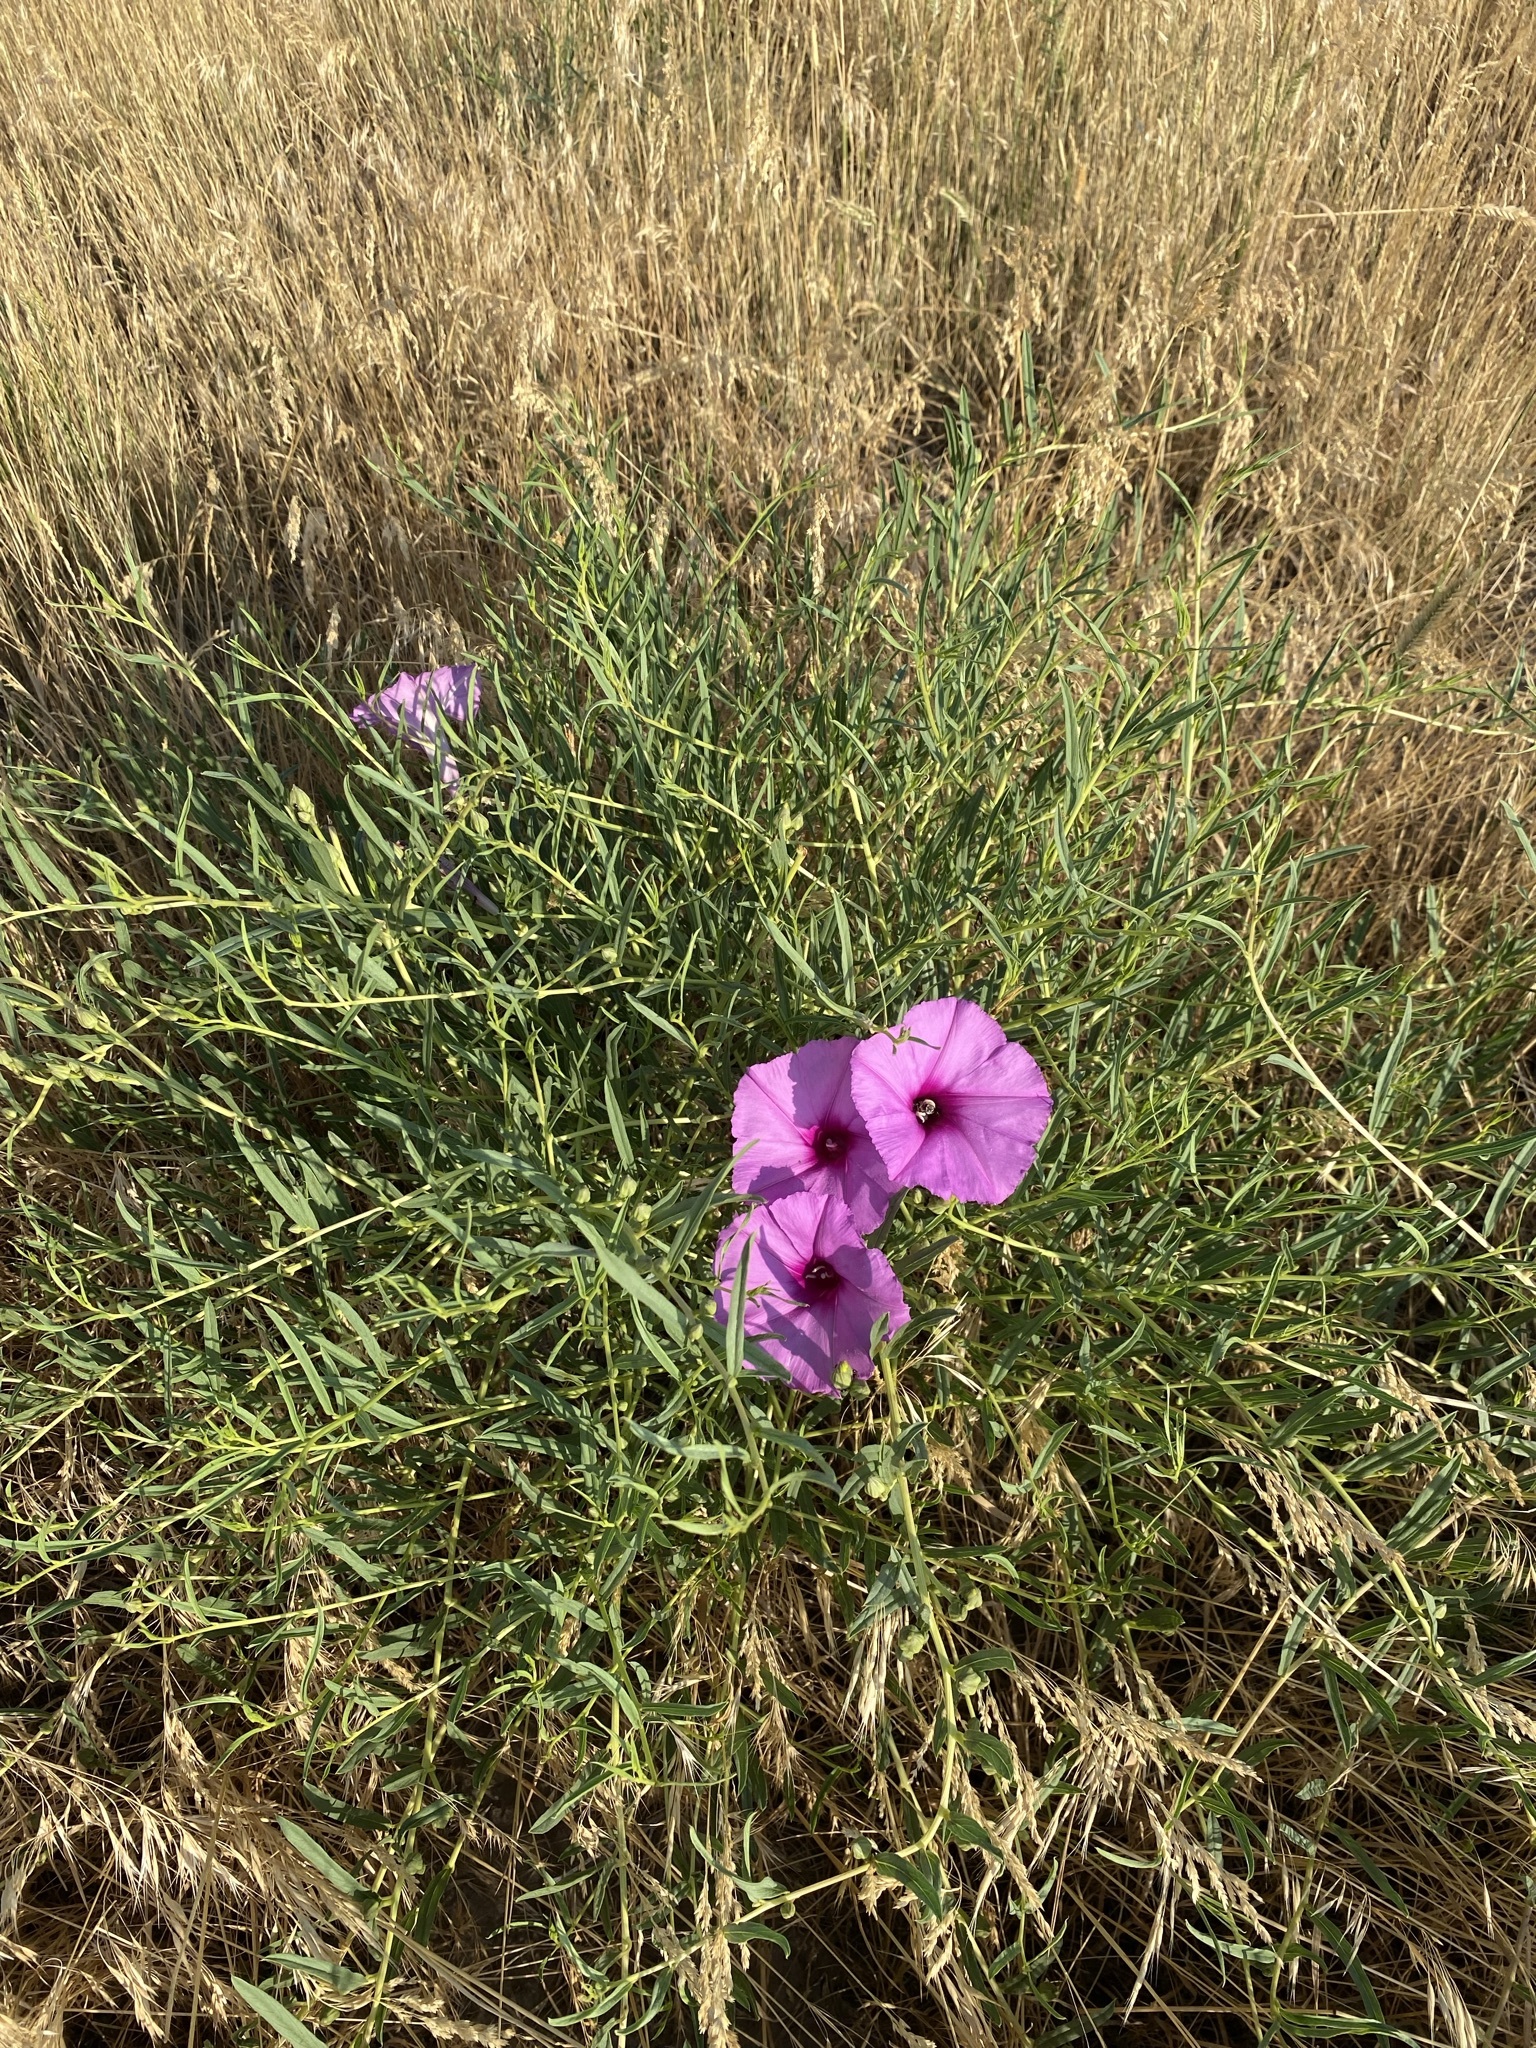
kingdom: Plantae
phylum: Tracheophyta
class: Magnoliopsida
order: Solanales
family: Convolvulaceae
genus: Ipomoea
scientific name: Ipomoea leptophylla
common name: Bush moonflower
